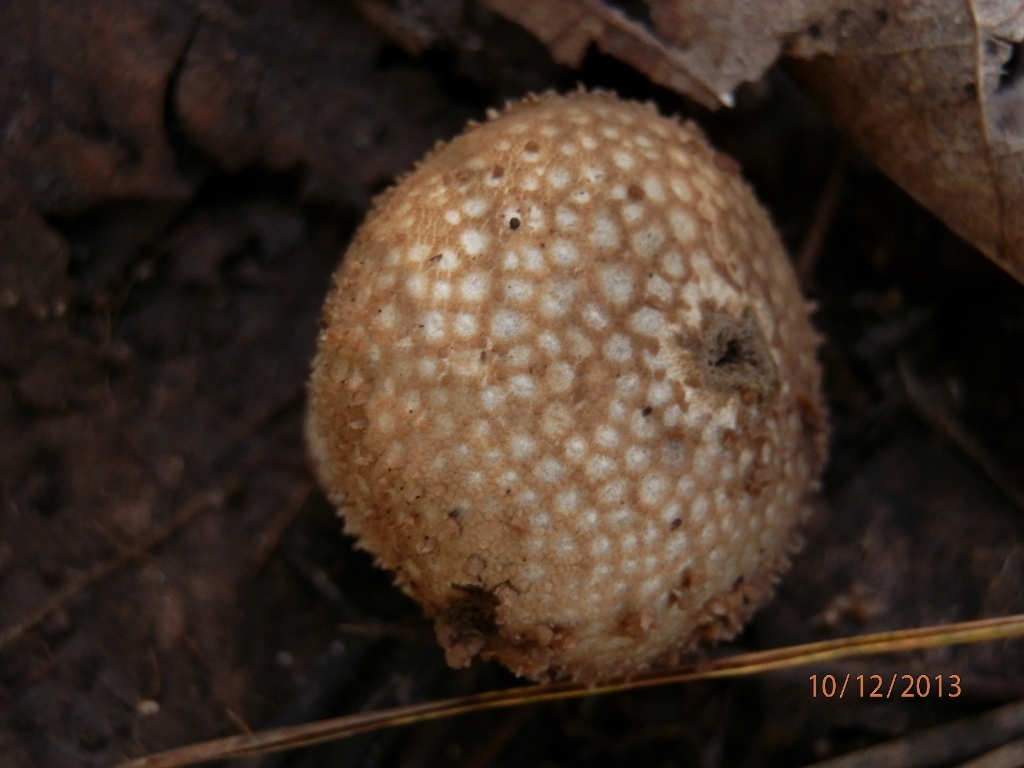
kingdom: Fungi
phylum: Basidiomycota
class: Agaricomycetes
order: Agaricales
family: Lycoperdaceae
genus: Lycoperdon
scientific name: Lycoperdon perlatum
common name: Common puffball
